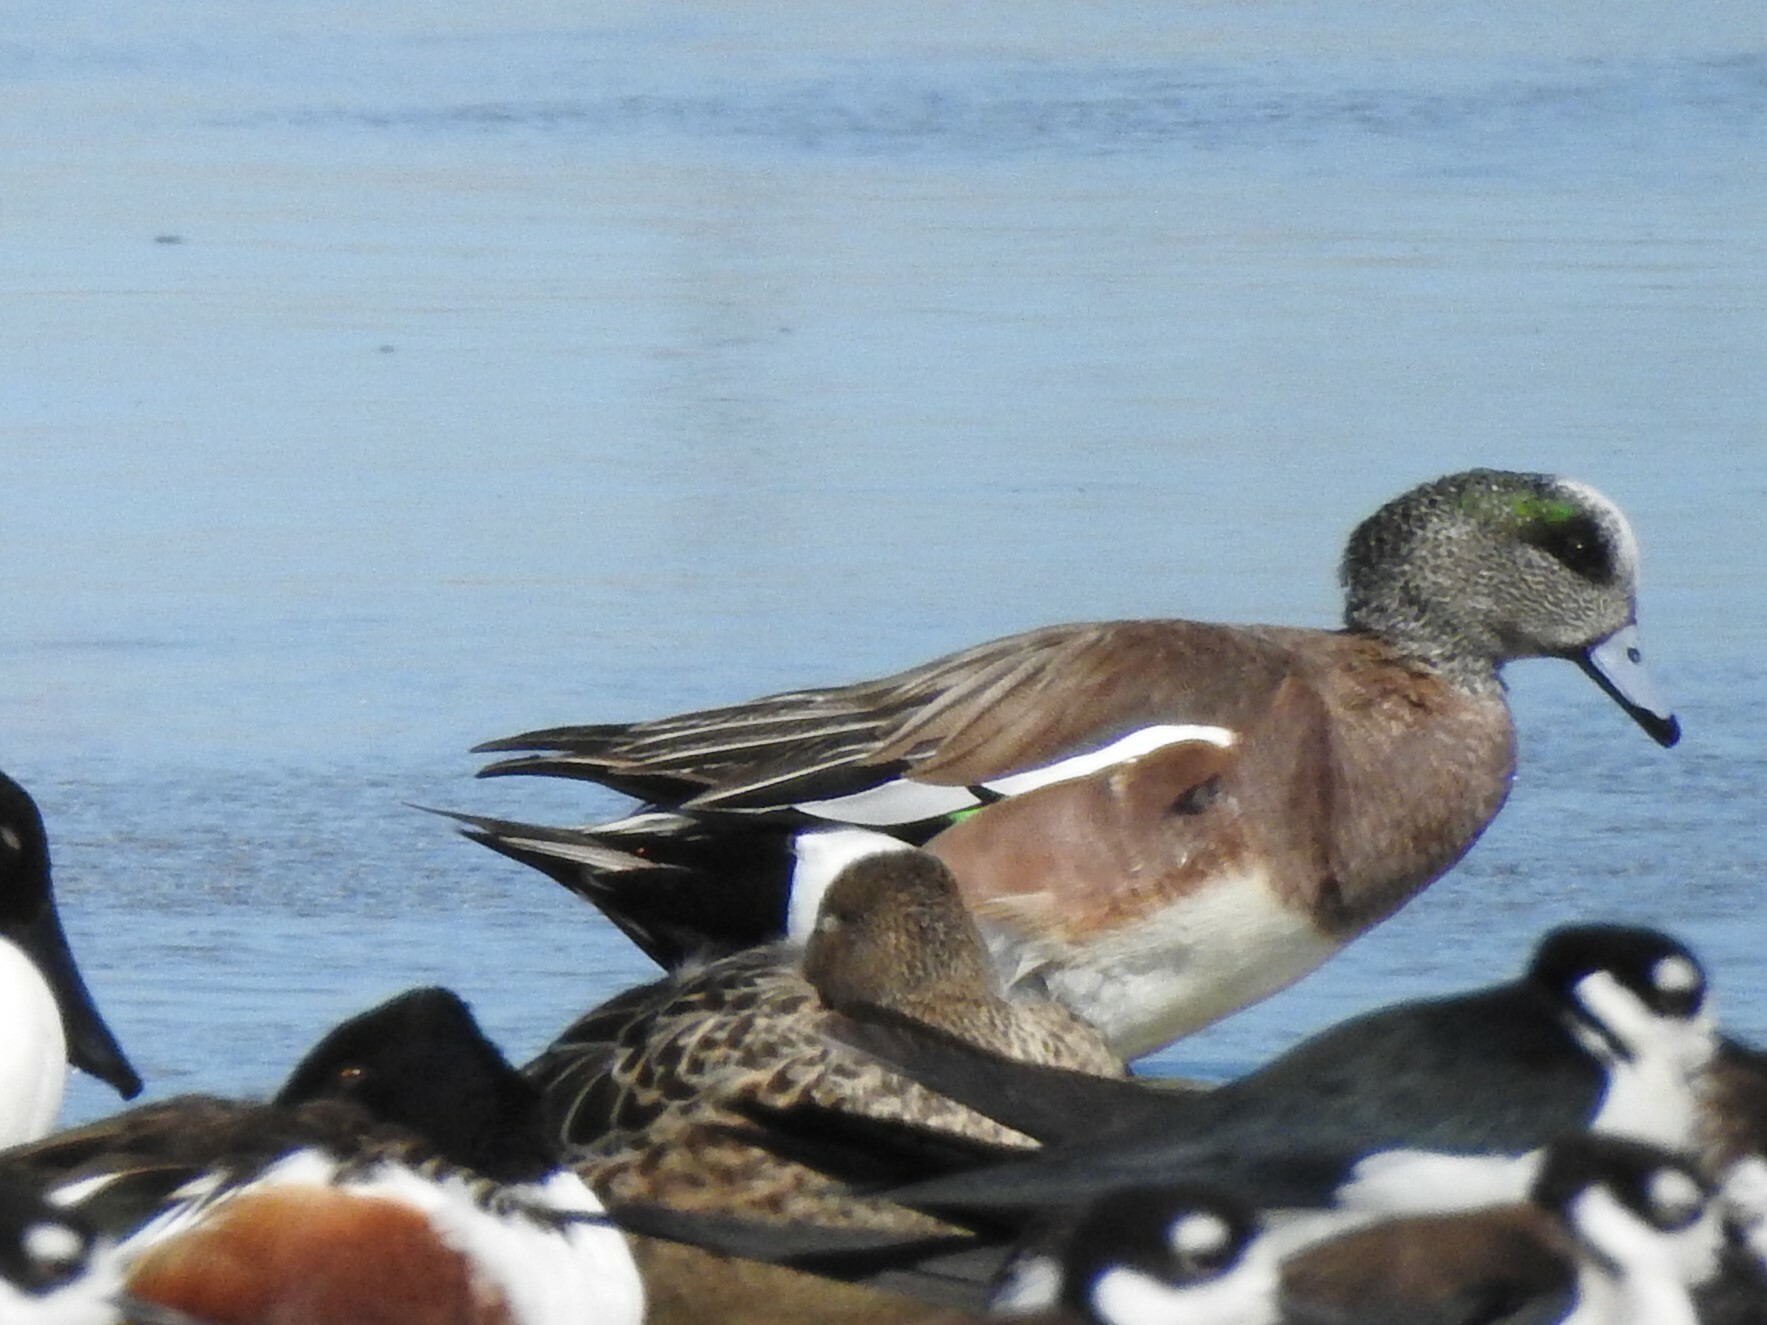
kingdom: Animalia
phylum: Chordata
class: Aves
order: Anseriformes
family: Anatidae
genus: Mareca
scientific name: Mareca americana
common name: American wigeon
